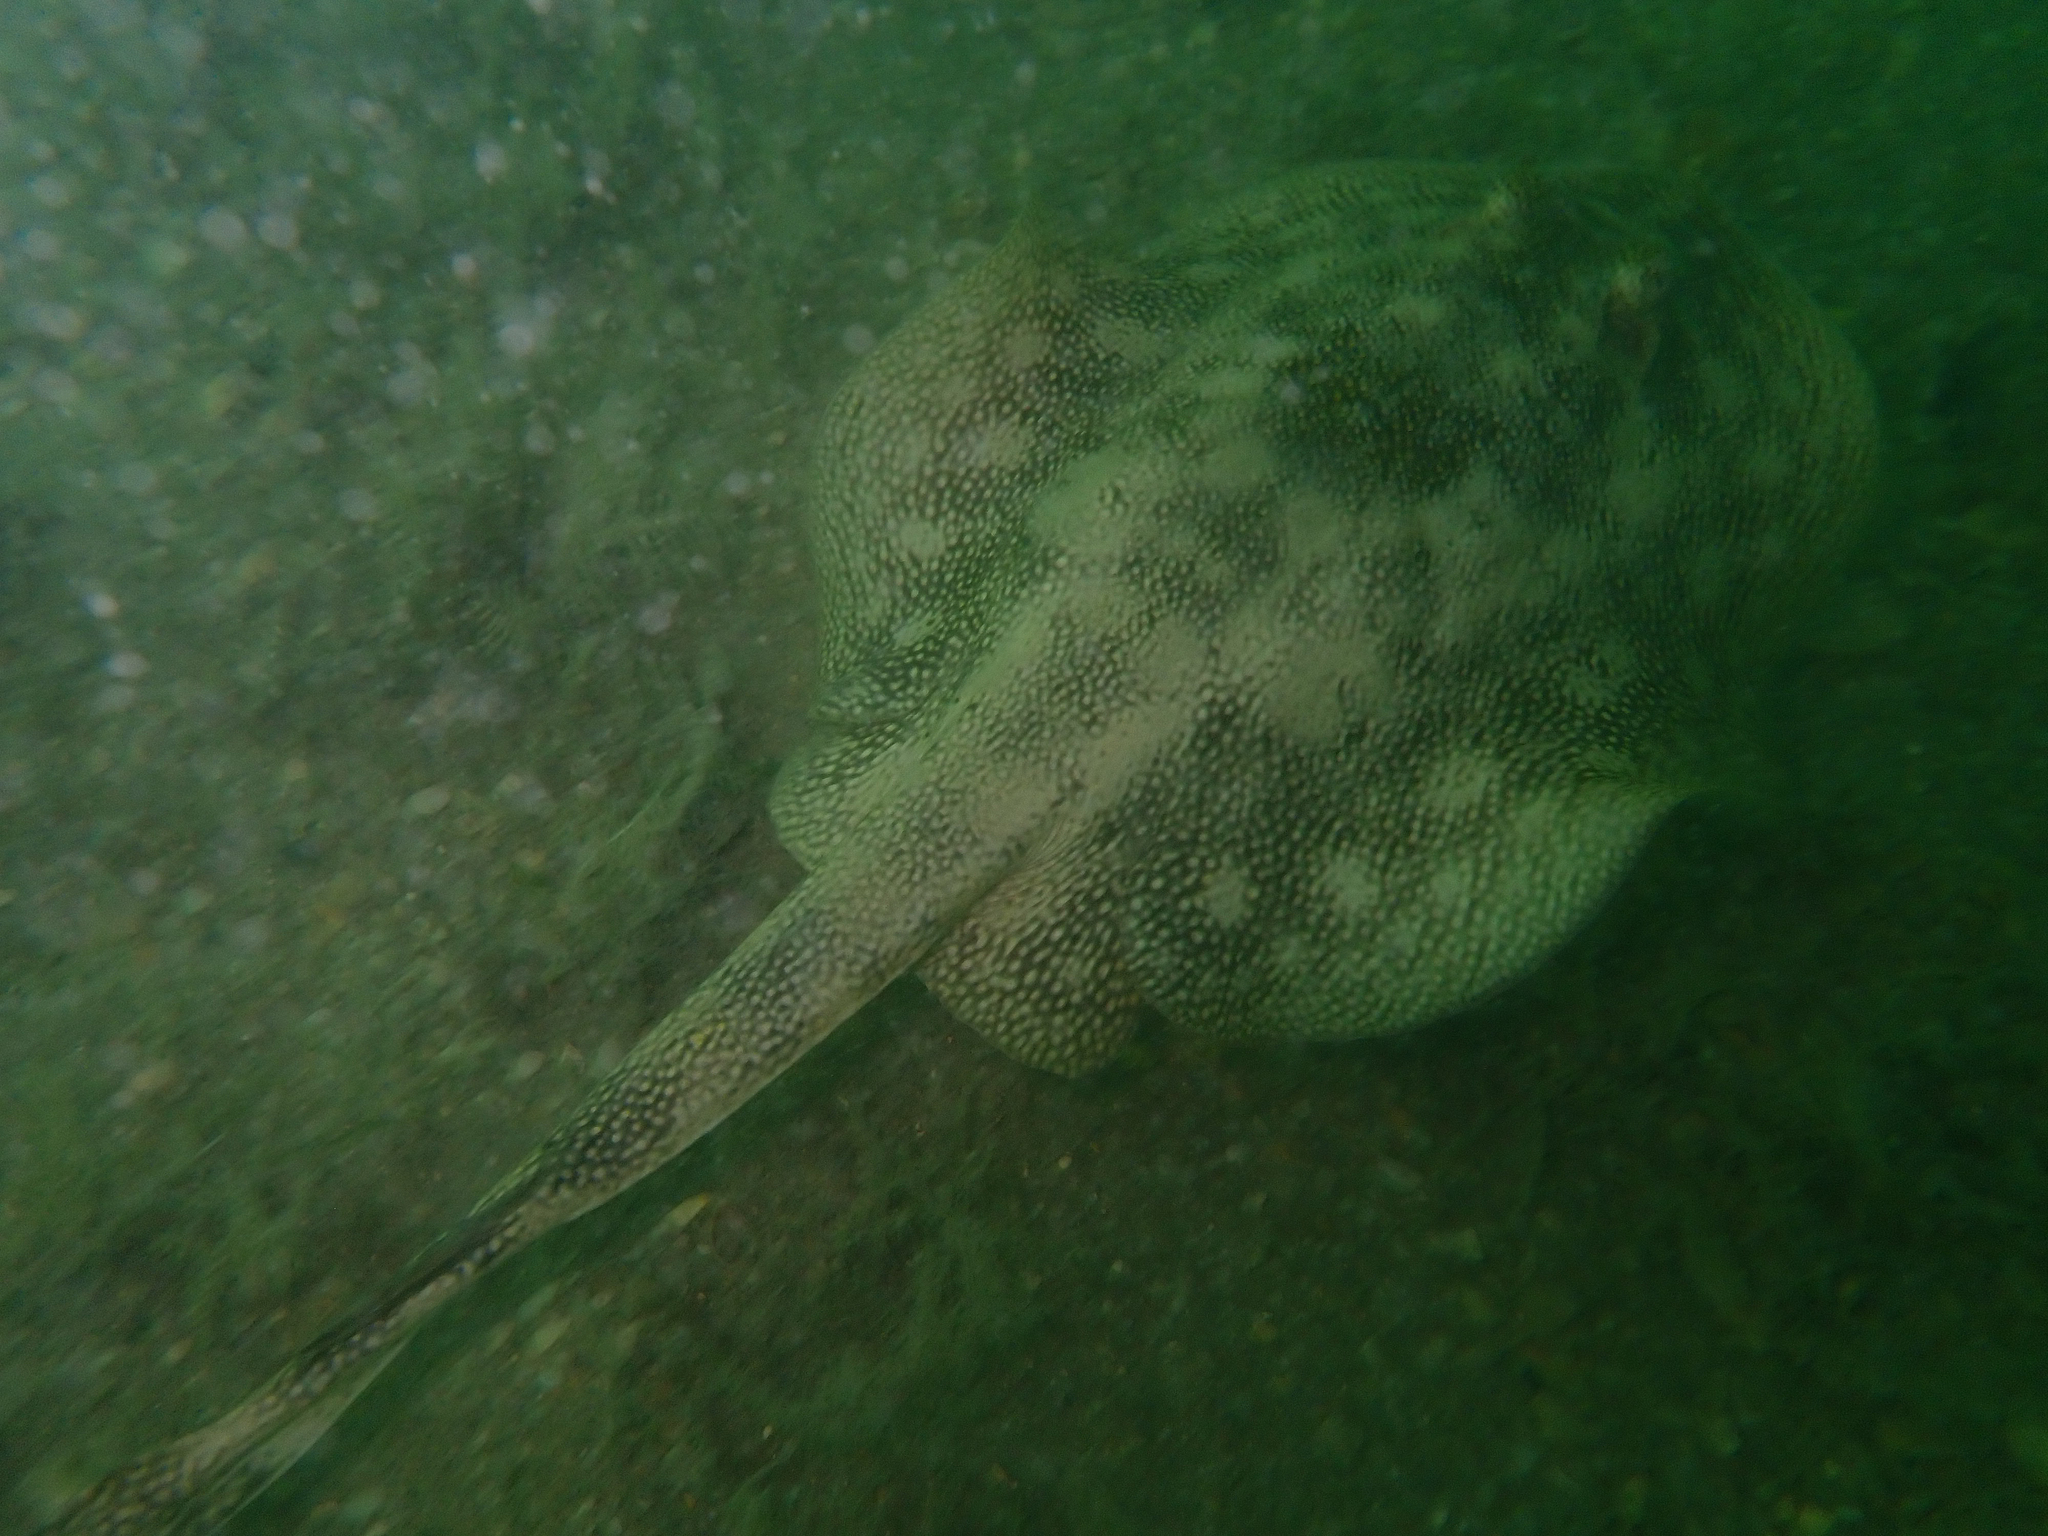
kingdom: Animalia
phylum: Chordata
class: Elasmobranchii
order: Myliobatiformes
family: Urotrygonidae
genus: Urobatis
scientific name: Urobatis jamaicensis
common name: Yellow stingray
